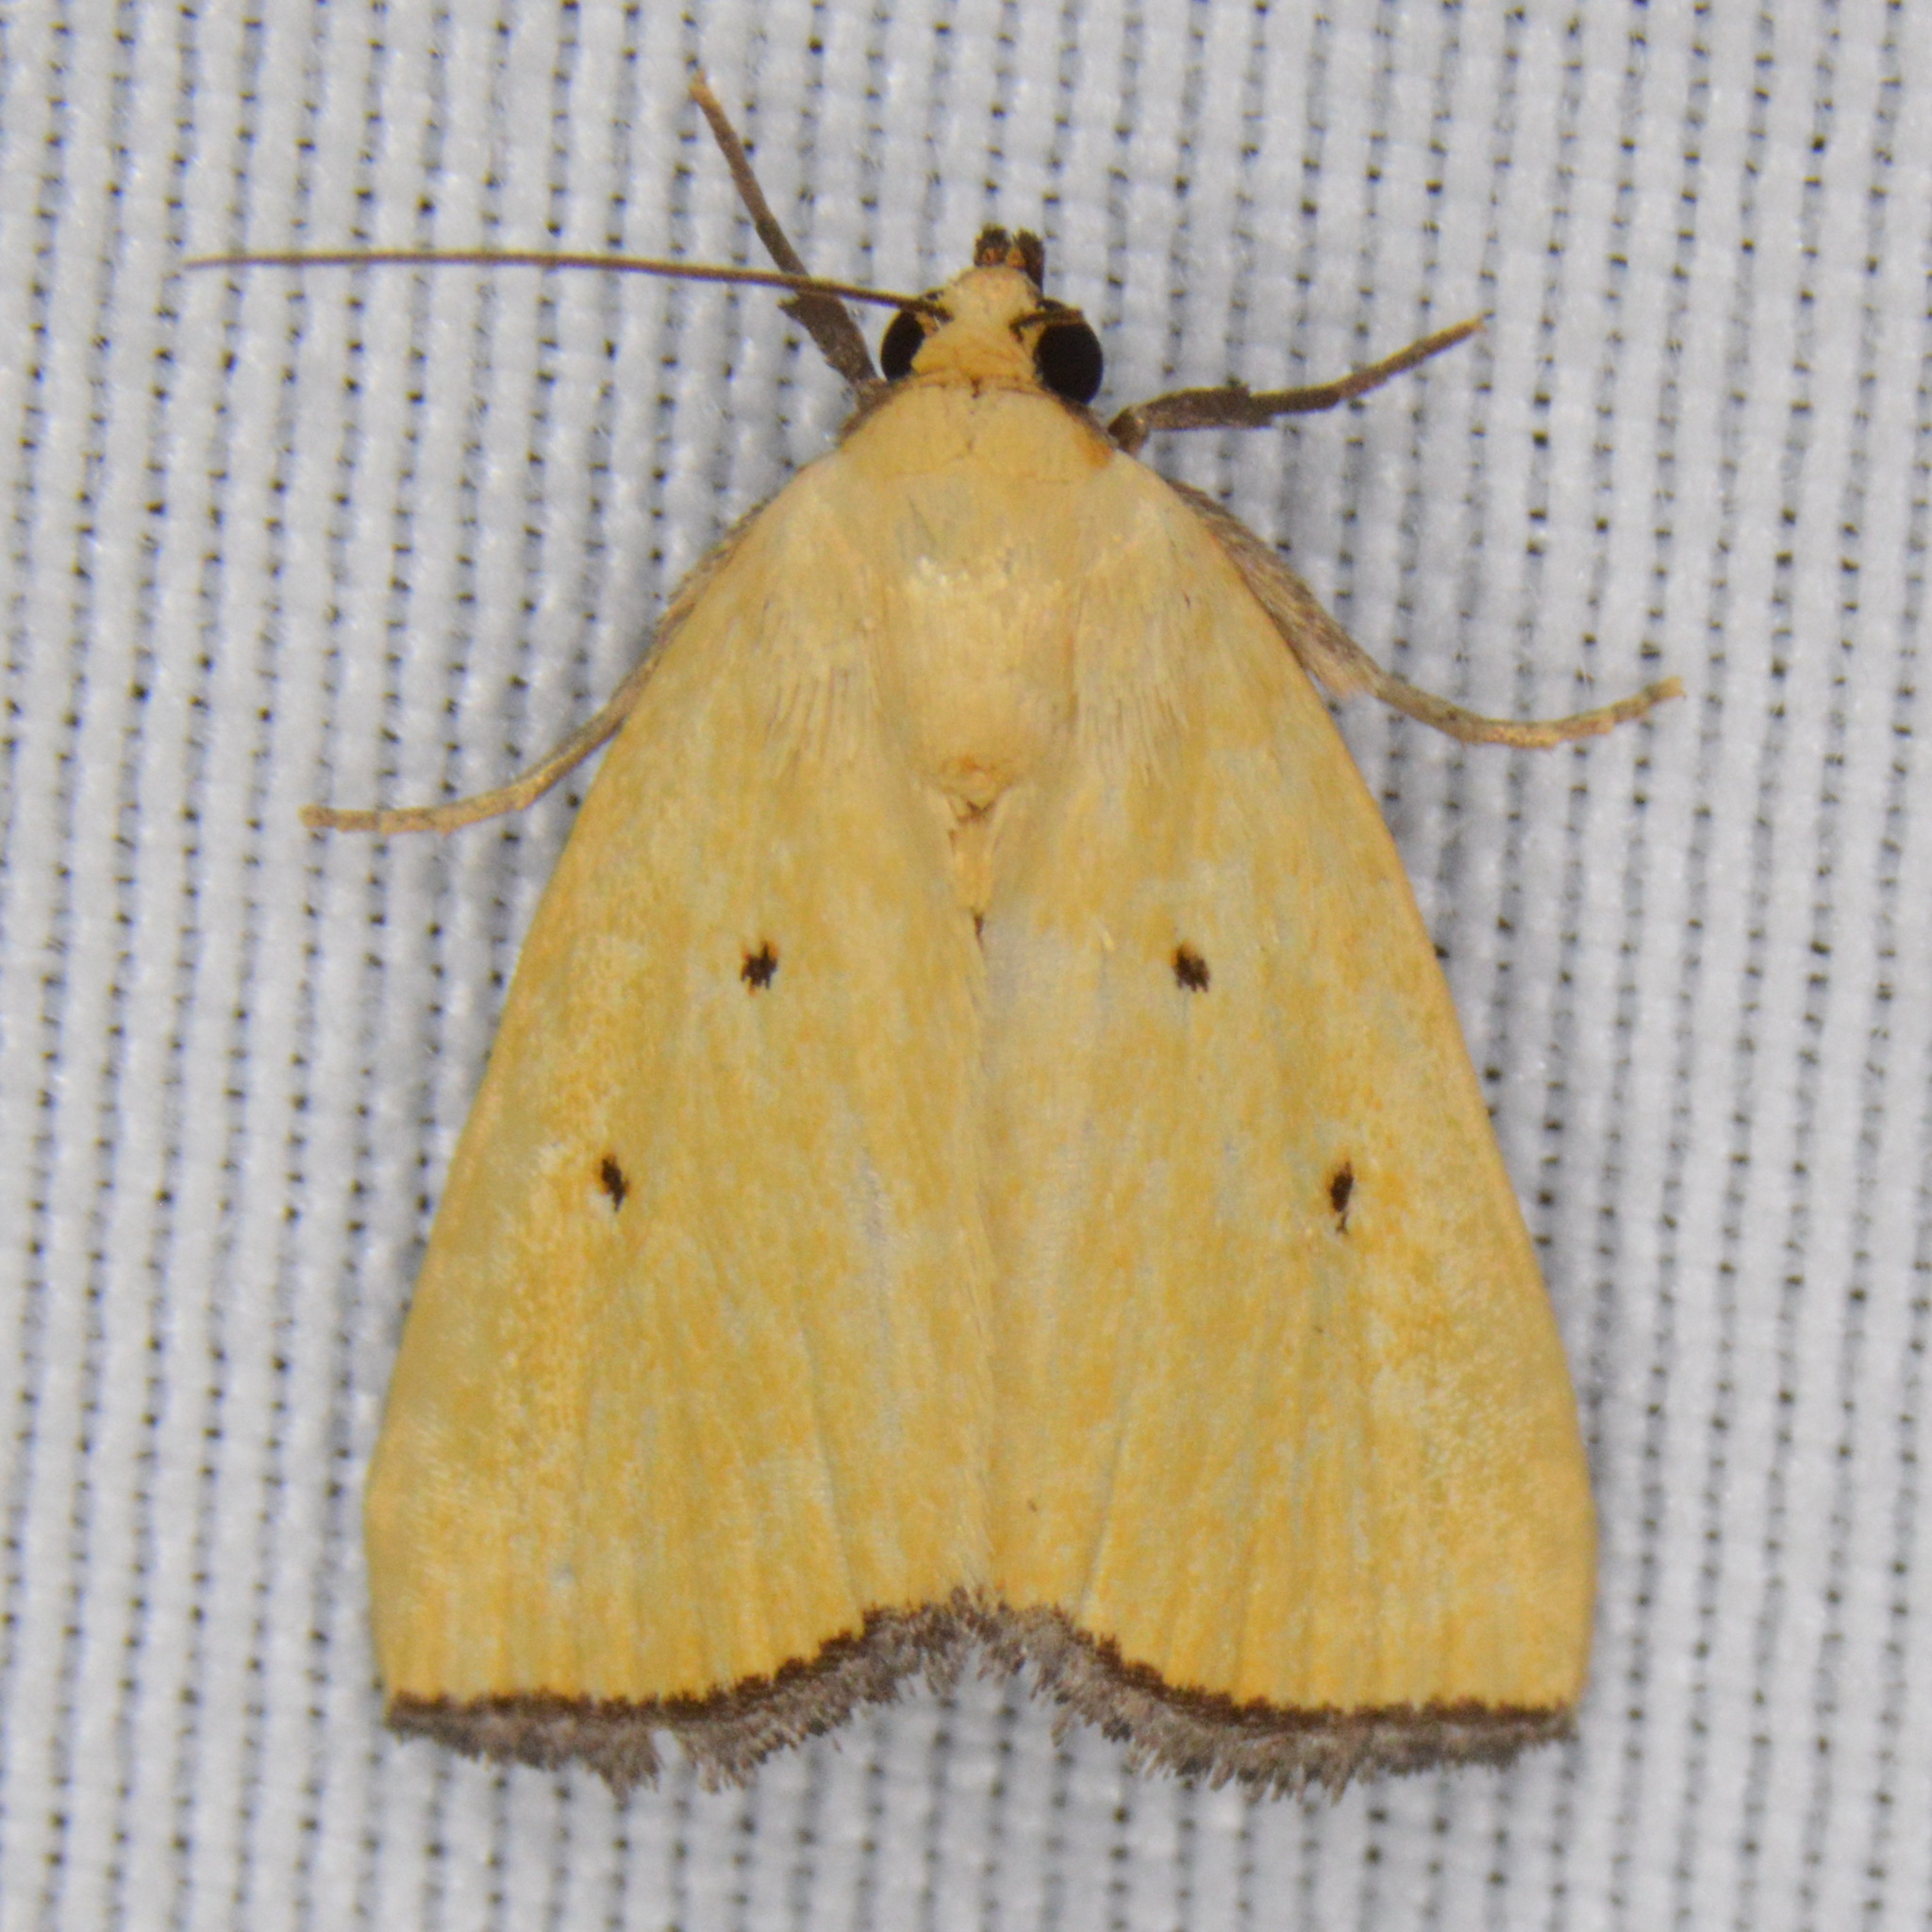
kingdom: Animalia
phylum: Arthropoda
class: Insecta
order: Lepidoptera
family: Noctuidae
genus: Marimatha
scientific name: Marimatha nigrofimbria
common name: Black-bordered lemon moth
